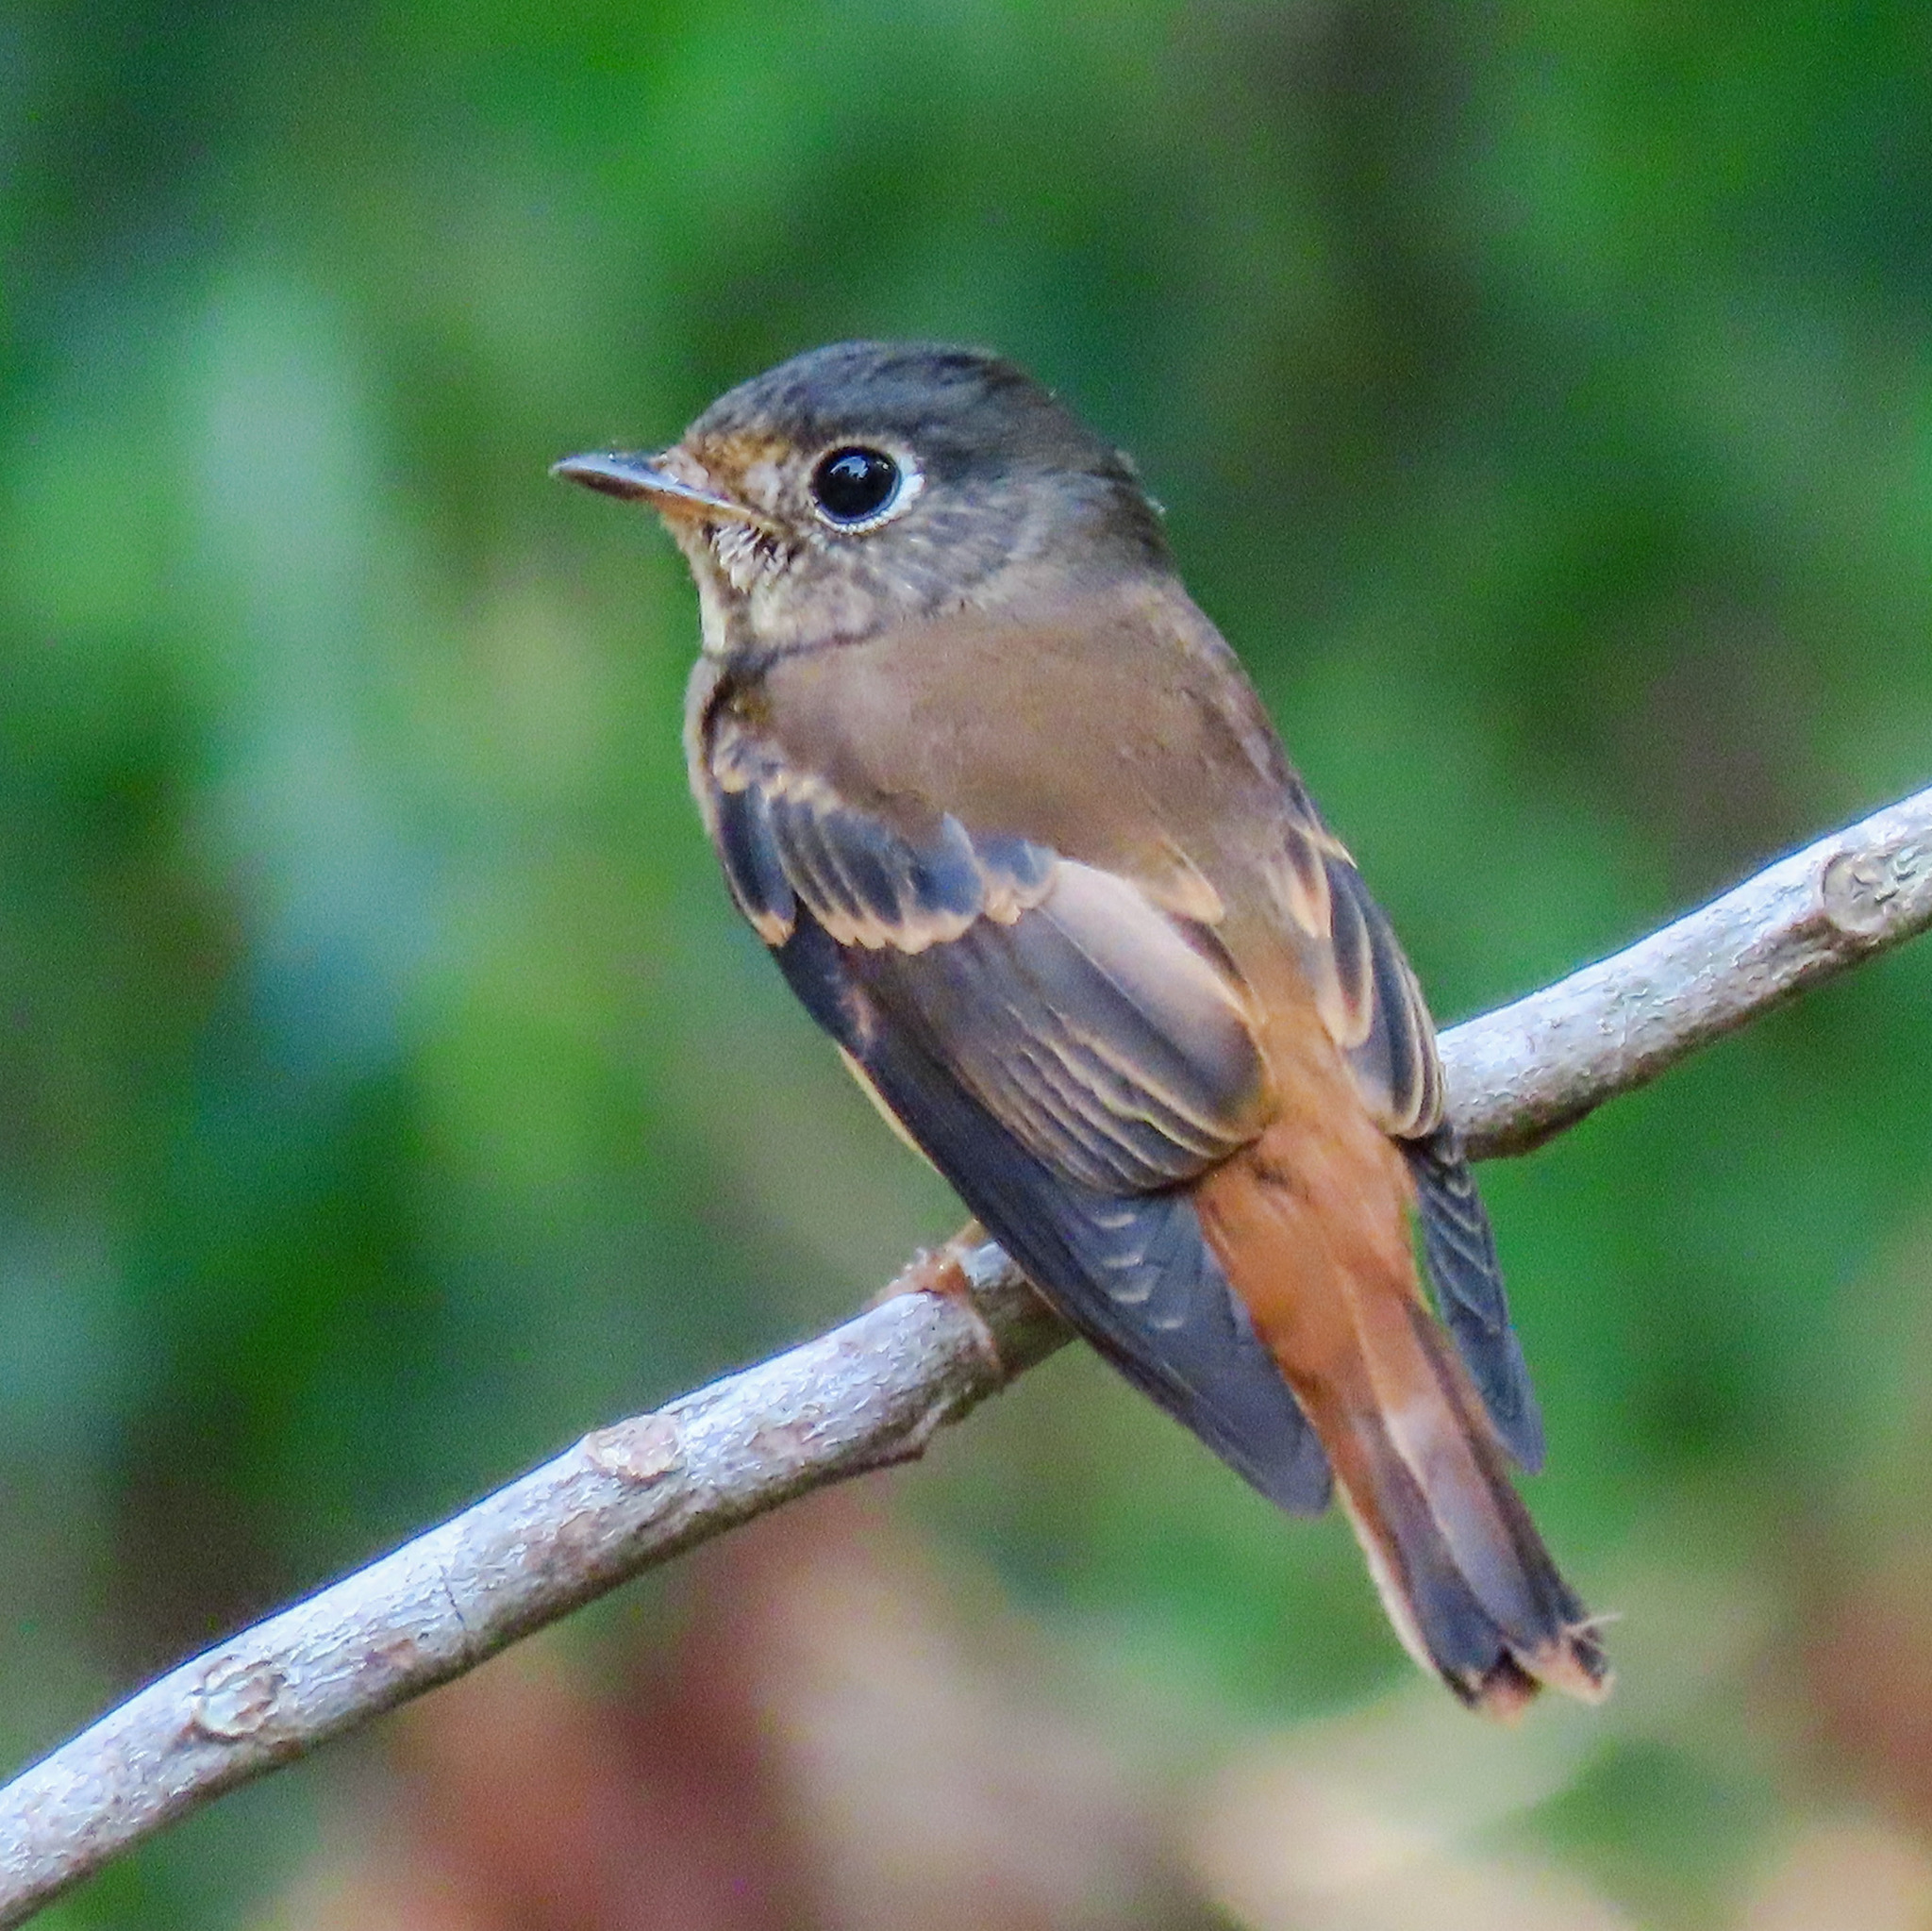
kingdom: Animalia
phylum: Chordata
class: Aves
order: Passeriformes
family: Muscicapidae
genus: Muscicapa
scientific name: Muscicapa ferruginea
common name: Ferruginous flycatcher
